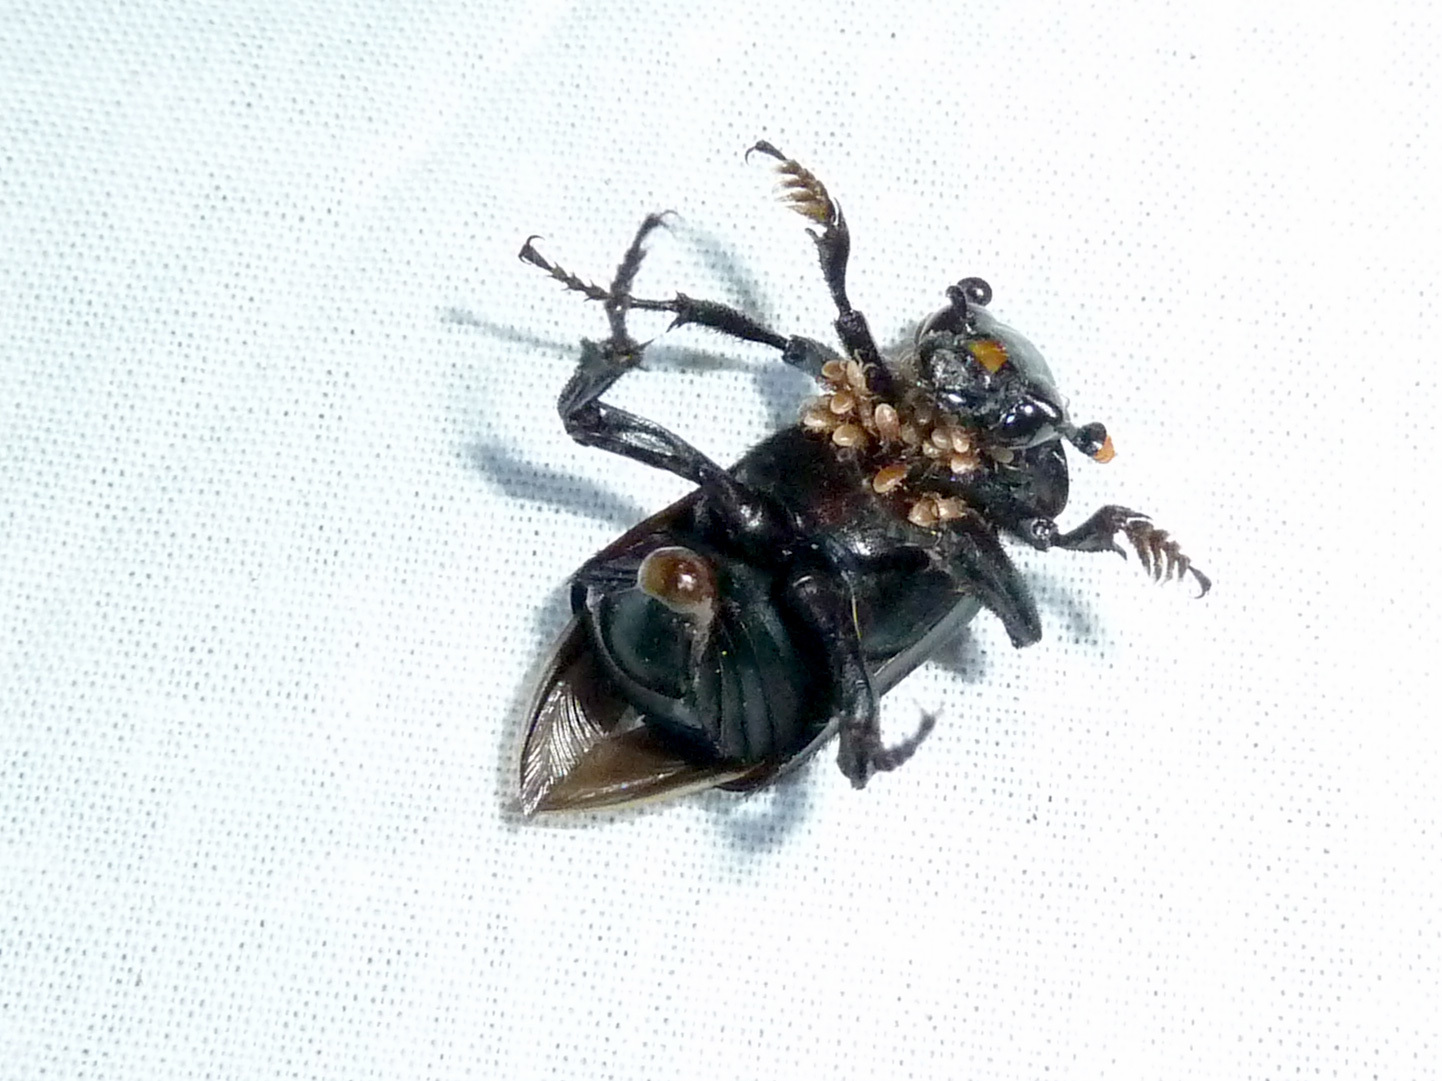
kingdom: Animalia
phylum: Arthropoda
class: Insecta
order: Coleoptera
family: Staphylinidae
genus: Nicrophorus
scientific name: Nicrophorus nigrita
